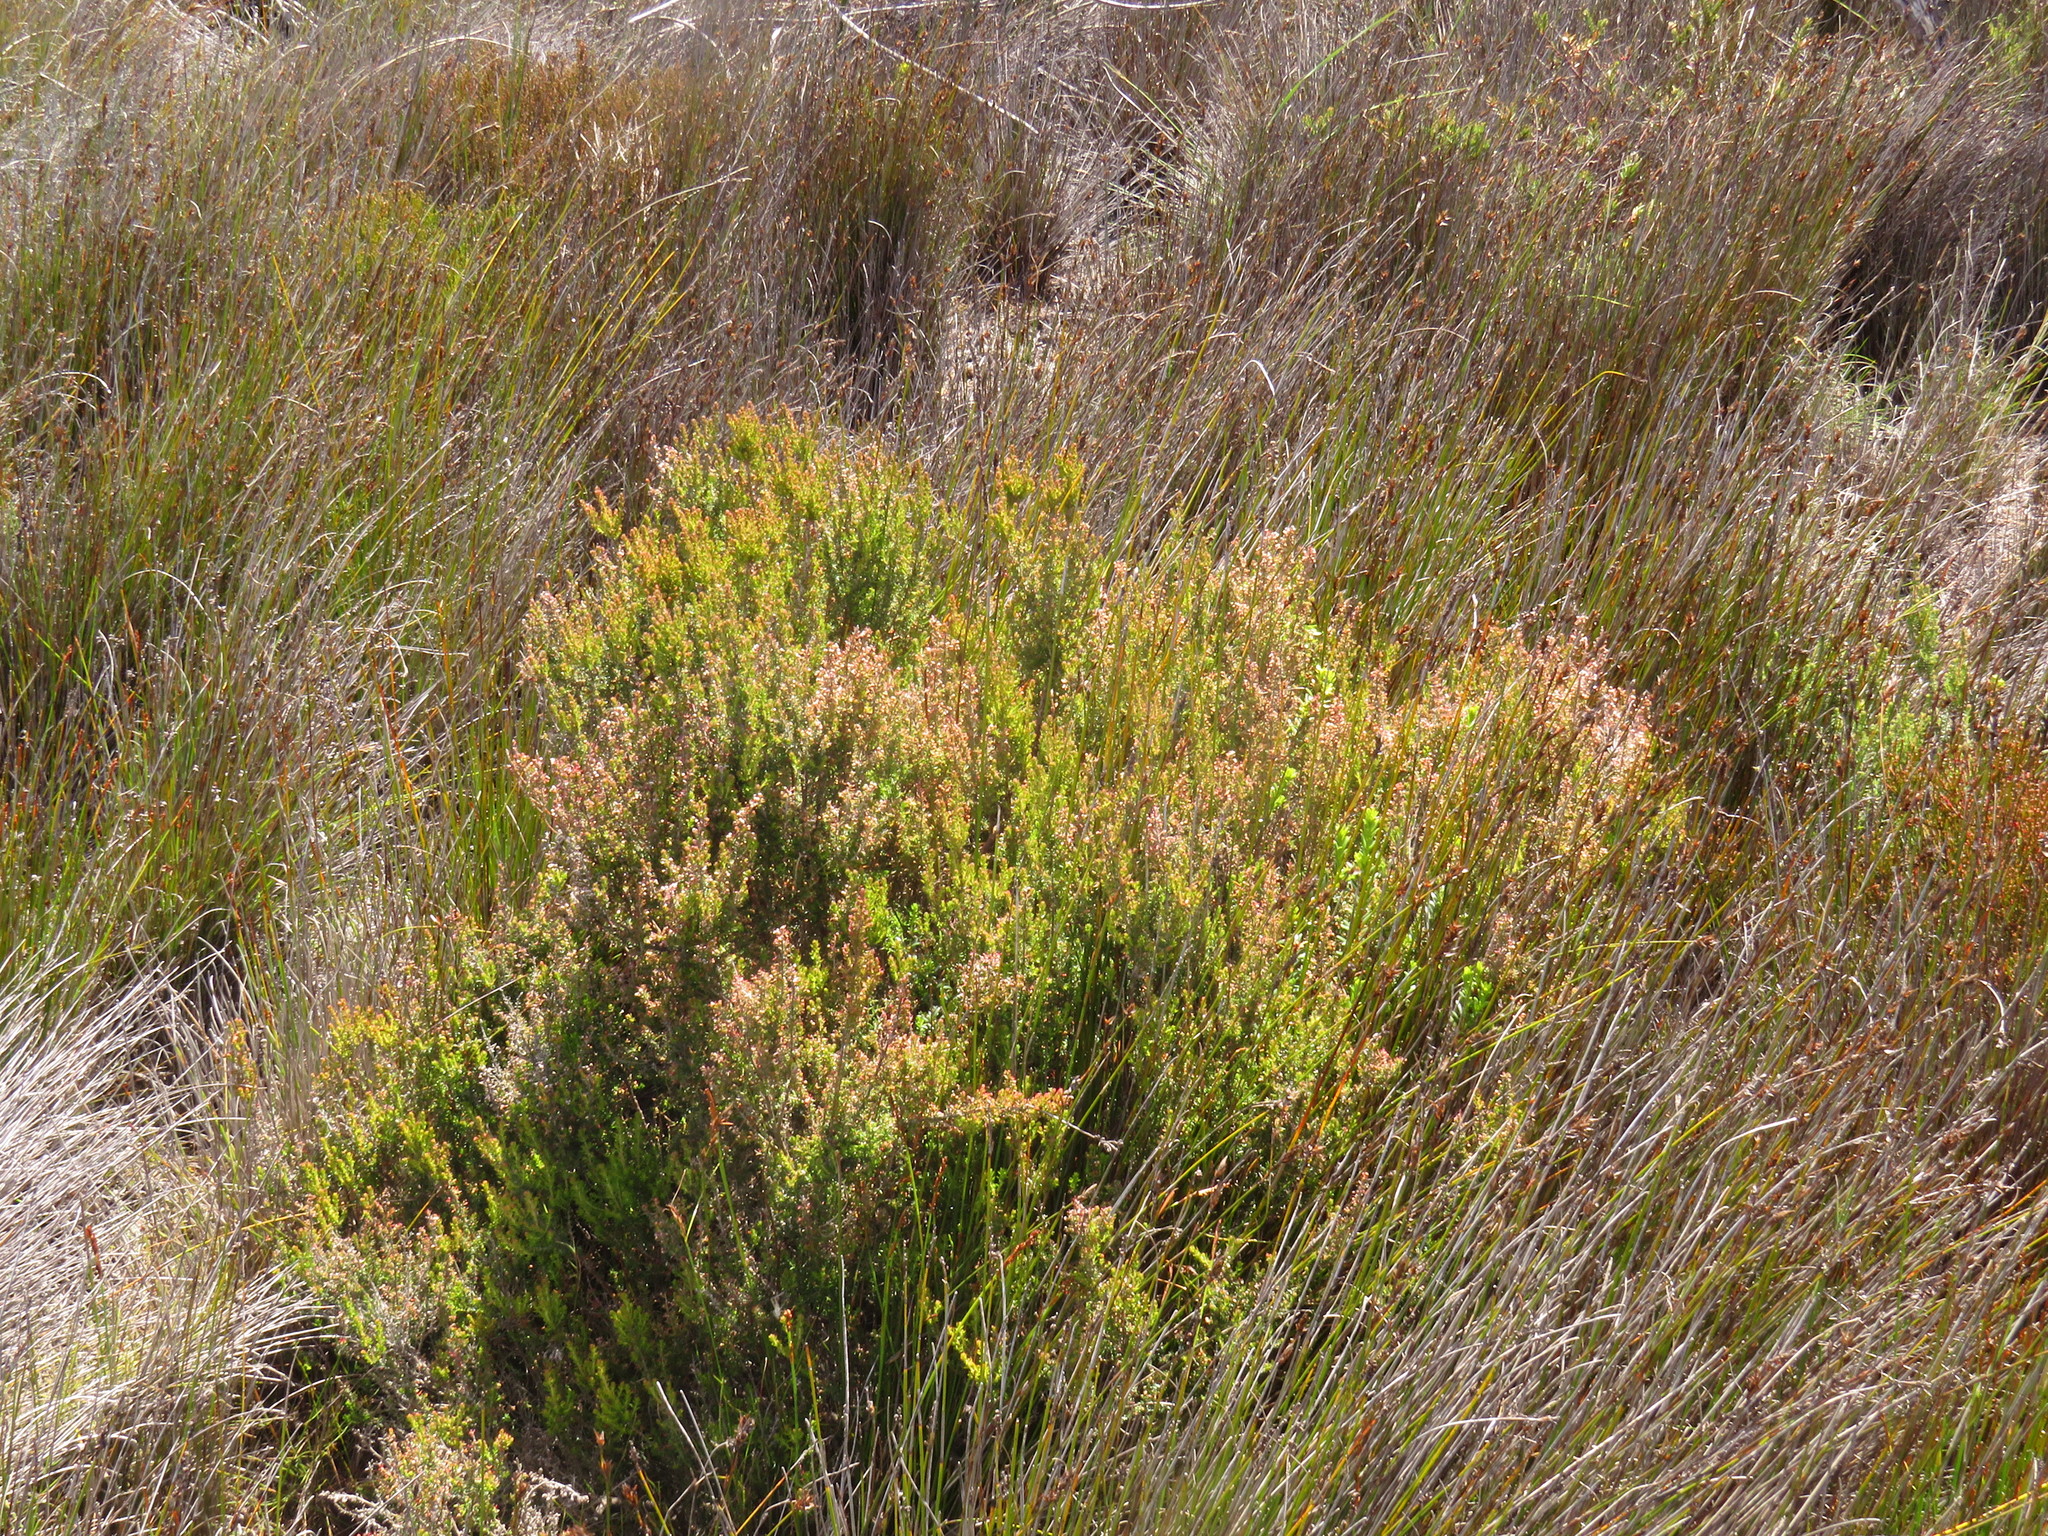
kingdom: Plantae
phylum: Tracheophyta
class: Magnoliopsida
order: Ericales
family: Ericaceae
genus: Erica
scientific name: Erica hispidula
